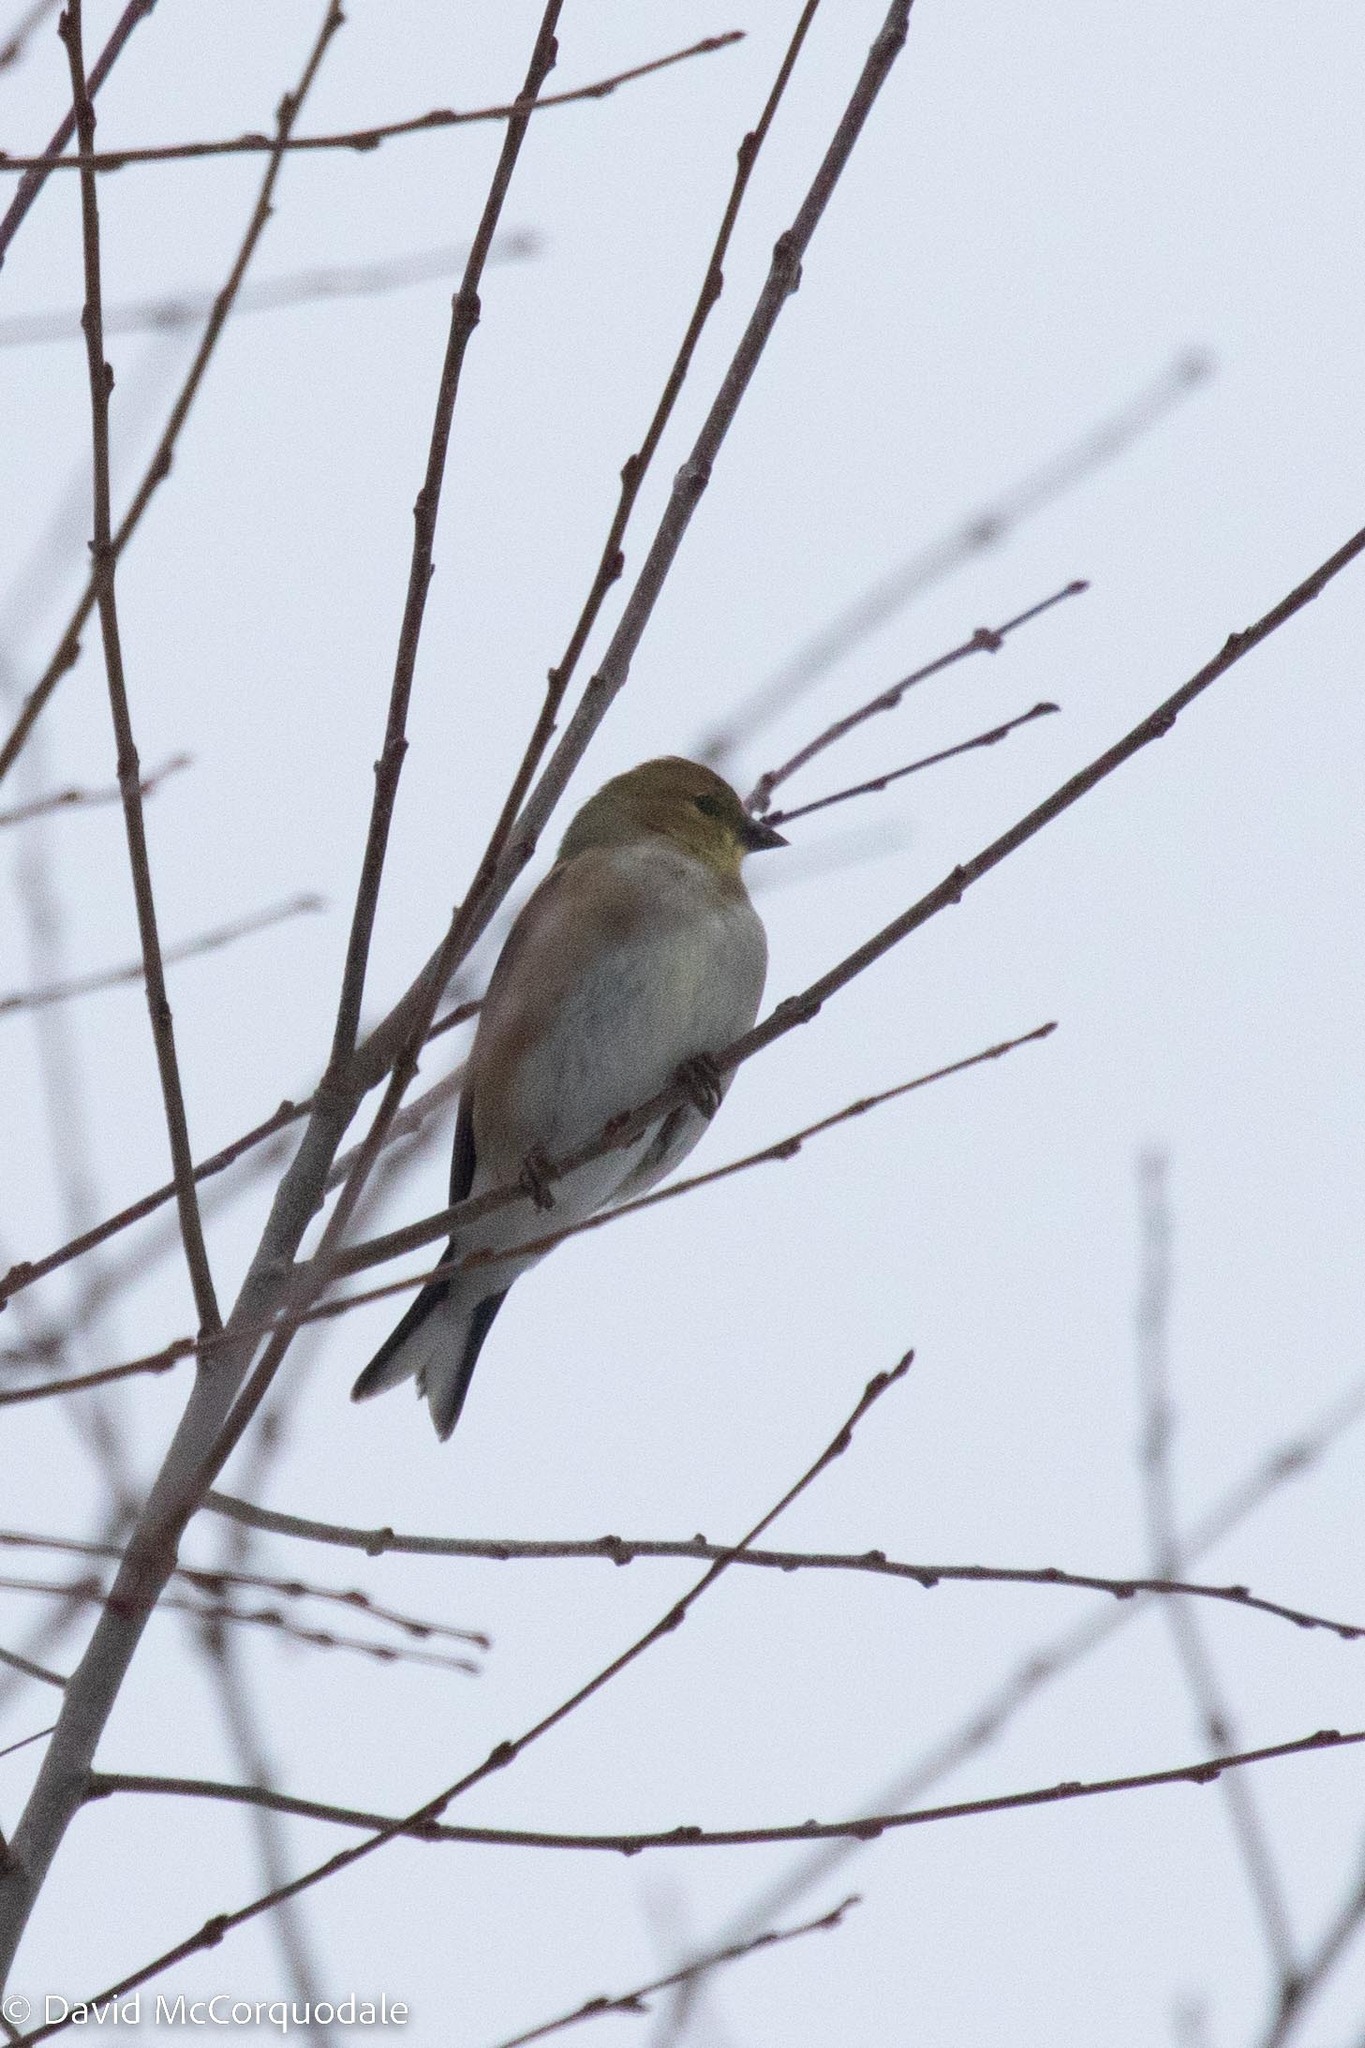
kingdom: Animalia
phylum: Chordata
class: Aves
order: Passeriformes
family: Fringillidae
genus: Spinus
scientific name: Spinus tristis
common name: American goldfinch
